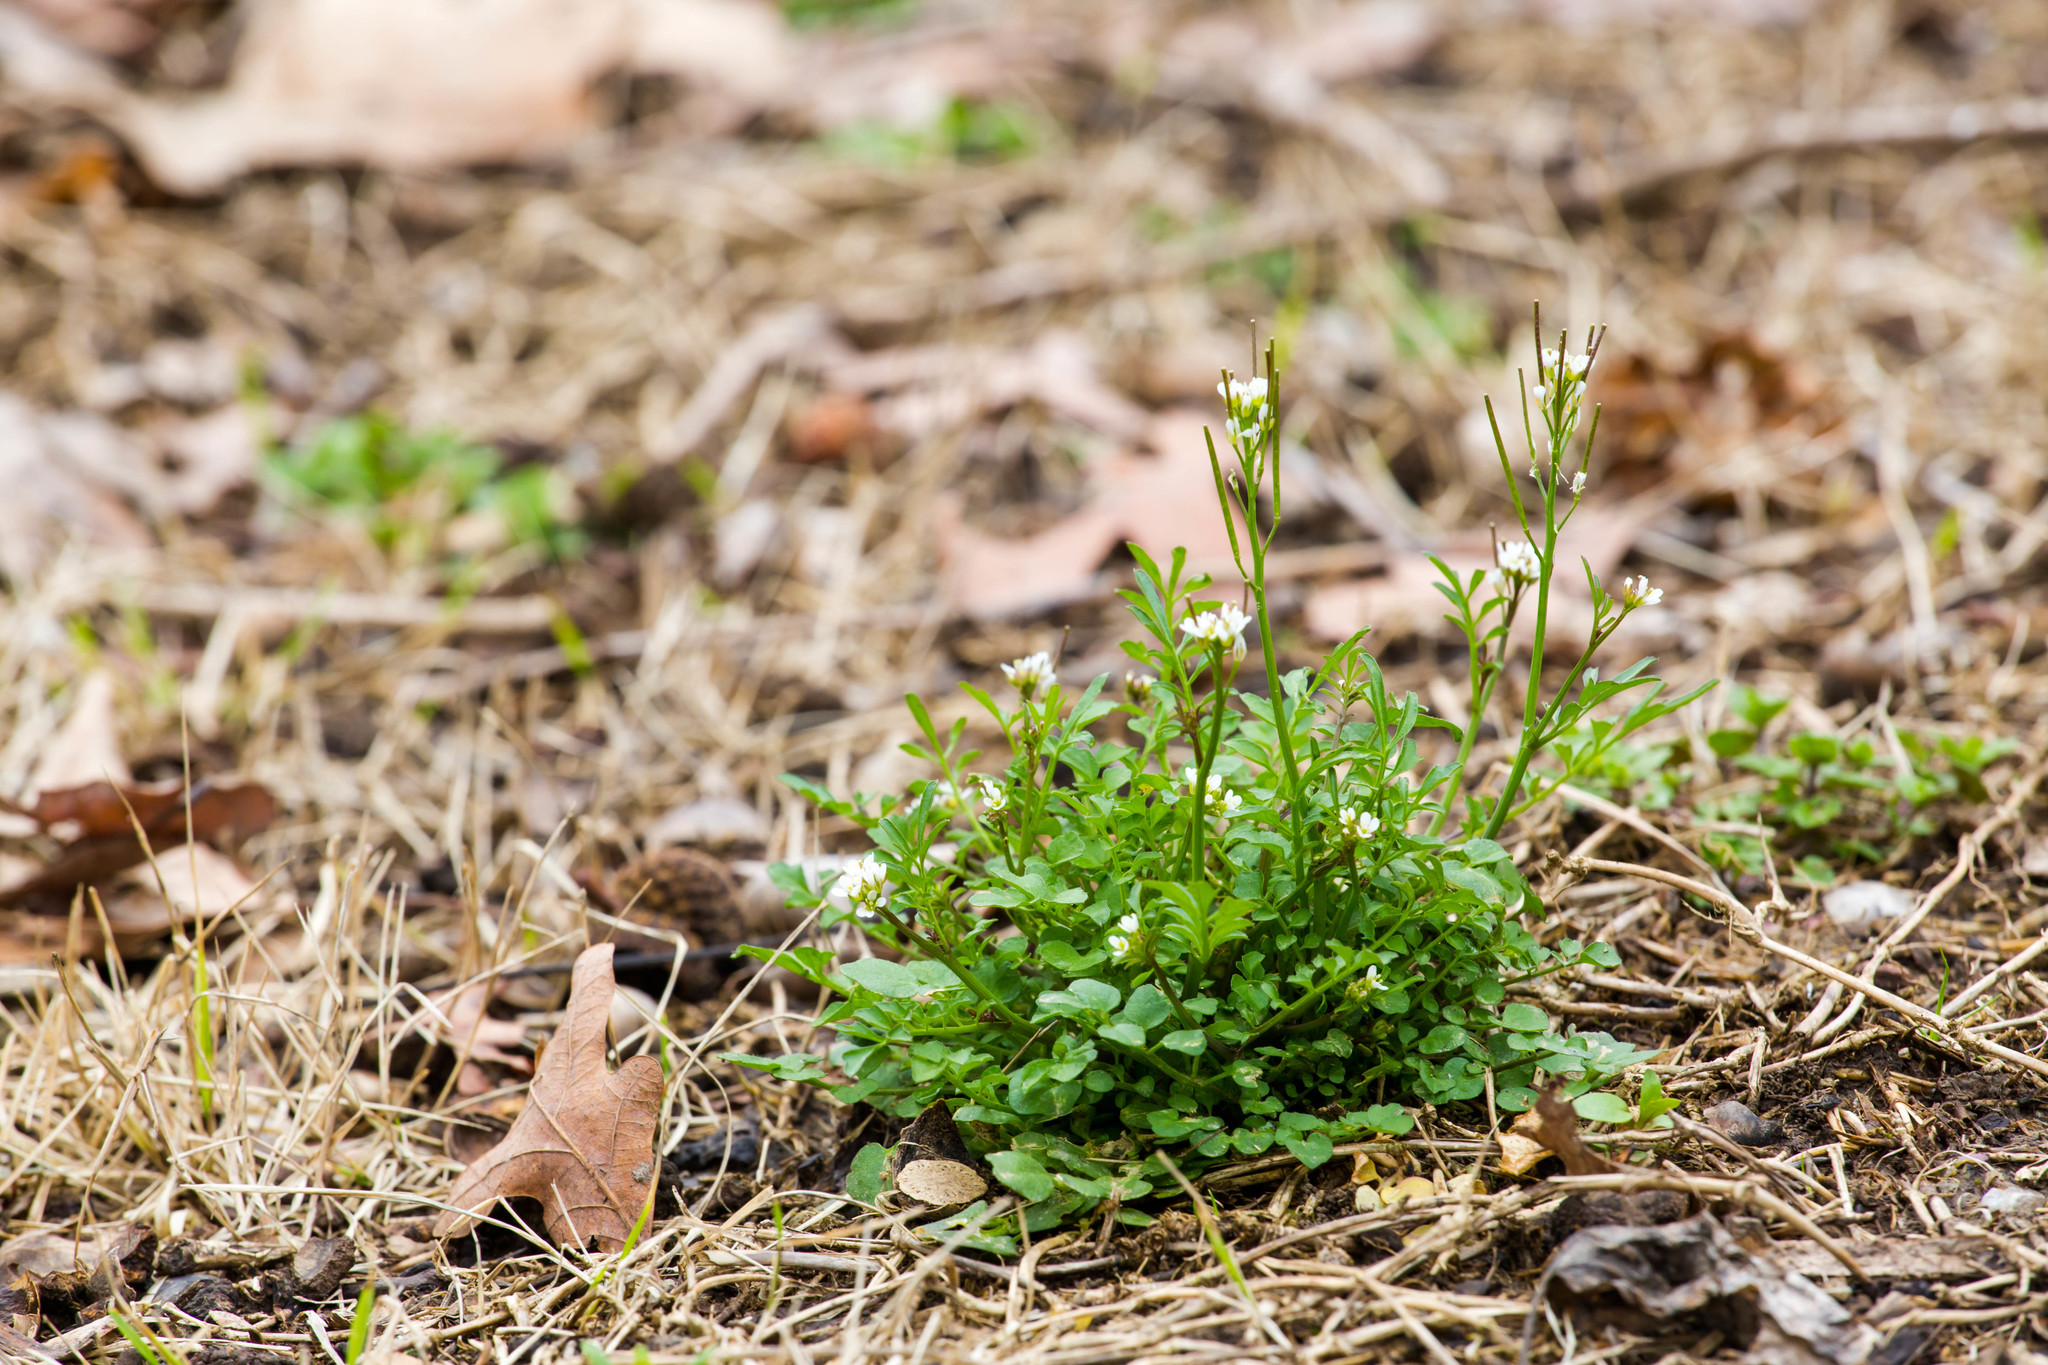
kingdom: Plantae
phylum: Tracheophyta
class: Magnoliopsida
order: Brassicales
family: Brassicaceae
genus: Cardamine
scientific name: Cardamine hirsuta
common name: Hairy bittercress
